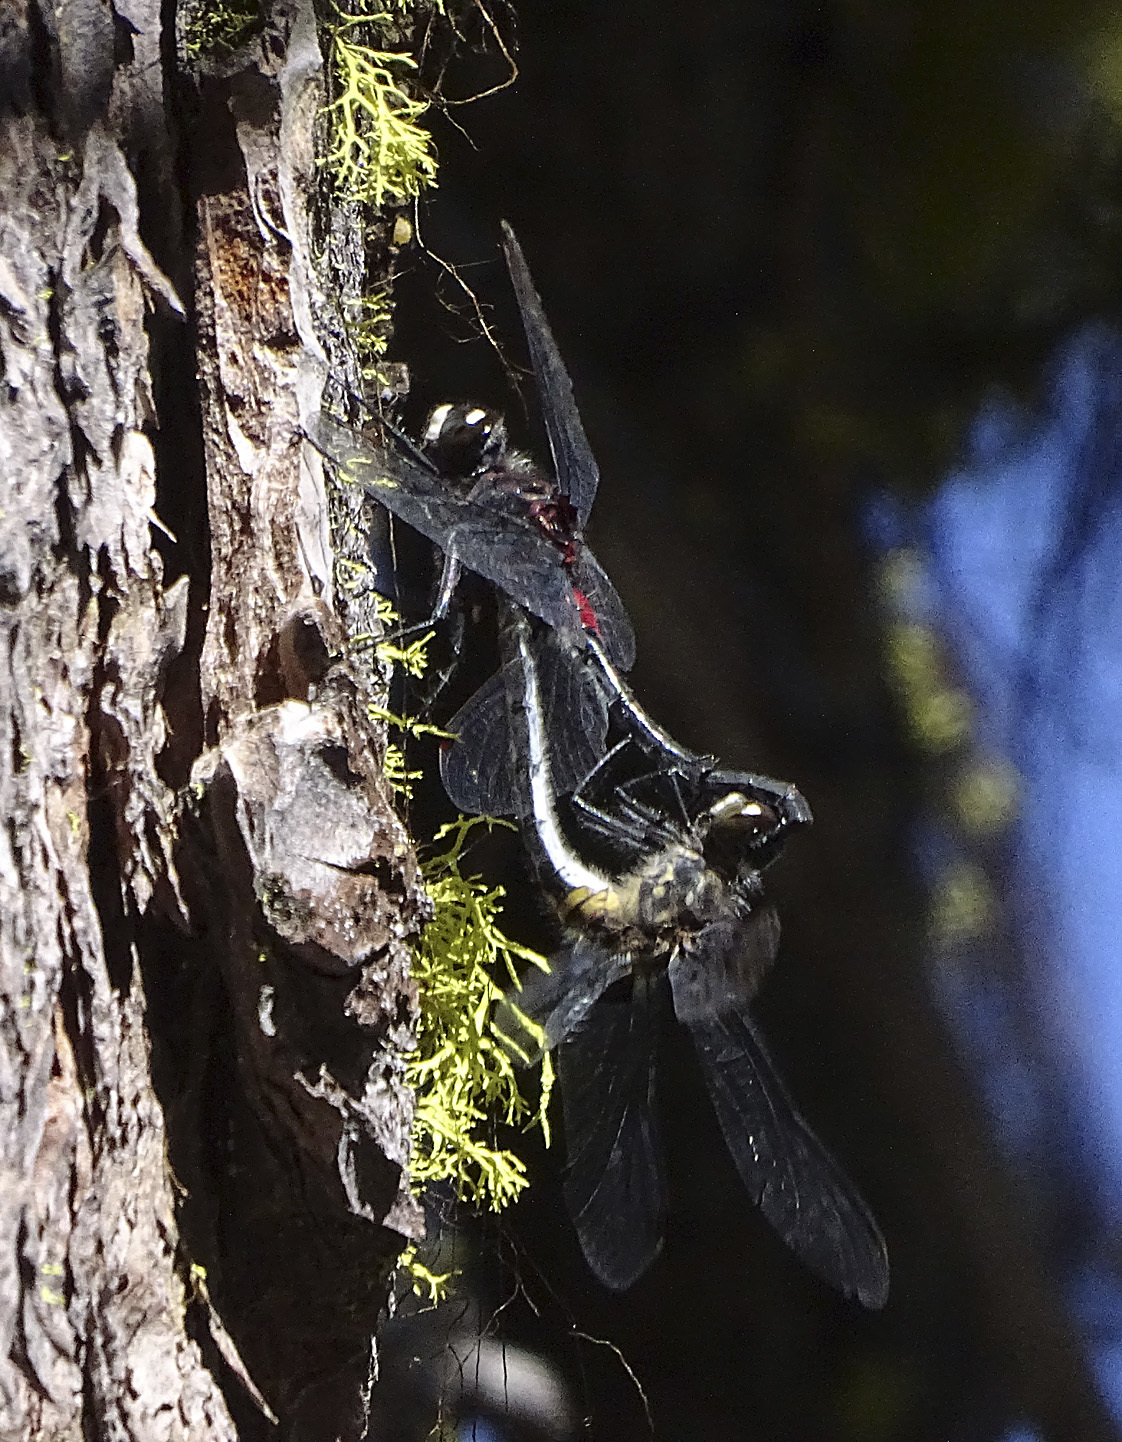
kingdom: Animalia
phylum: Arthropoda
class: Insecta
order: Odonata
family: Libellulidae
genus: Leucorrhinia
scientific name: Leucorrhinia glacialis
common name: Crimson-ringed whiteface
